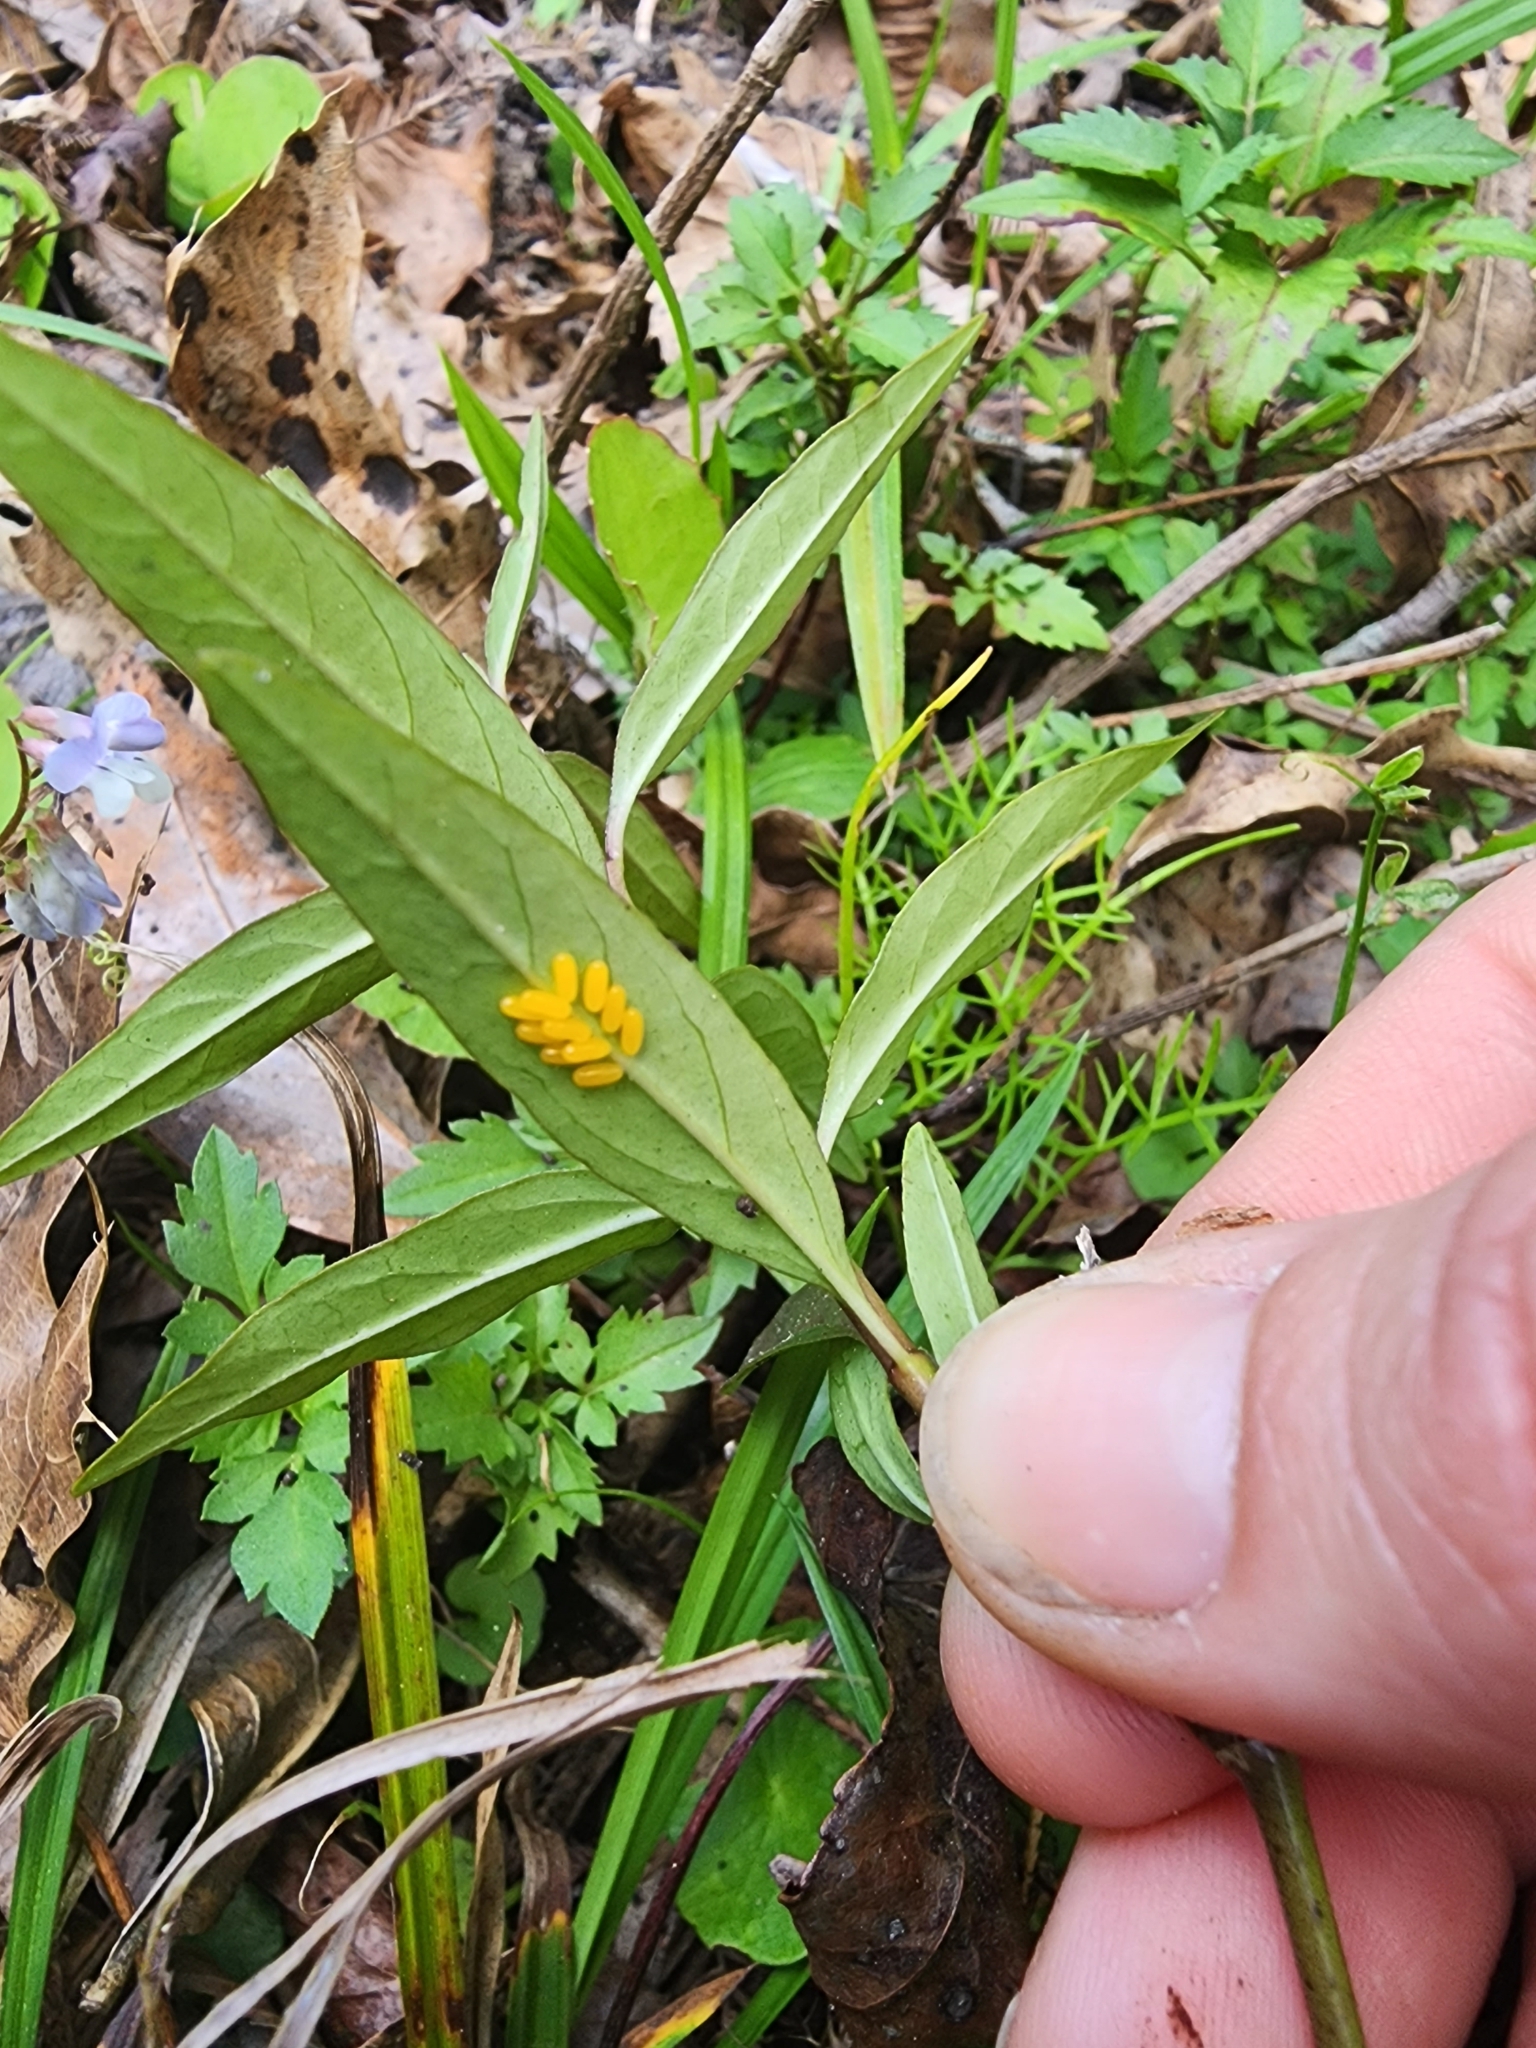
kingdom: Animalia
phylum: Arthropoda
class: Insecta
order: Coleoptera
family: Chrysomelidae
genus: Labidomera
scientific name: Labidomera clivicollis
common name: Swamp milkweed leaf beetle
